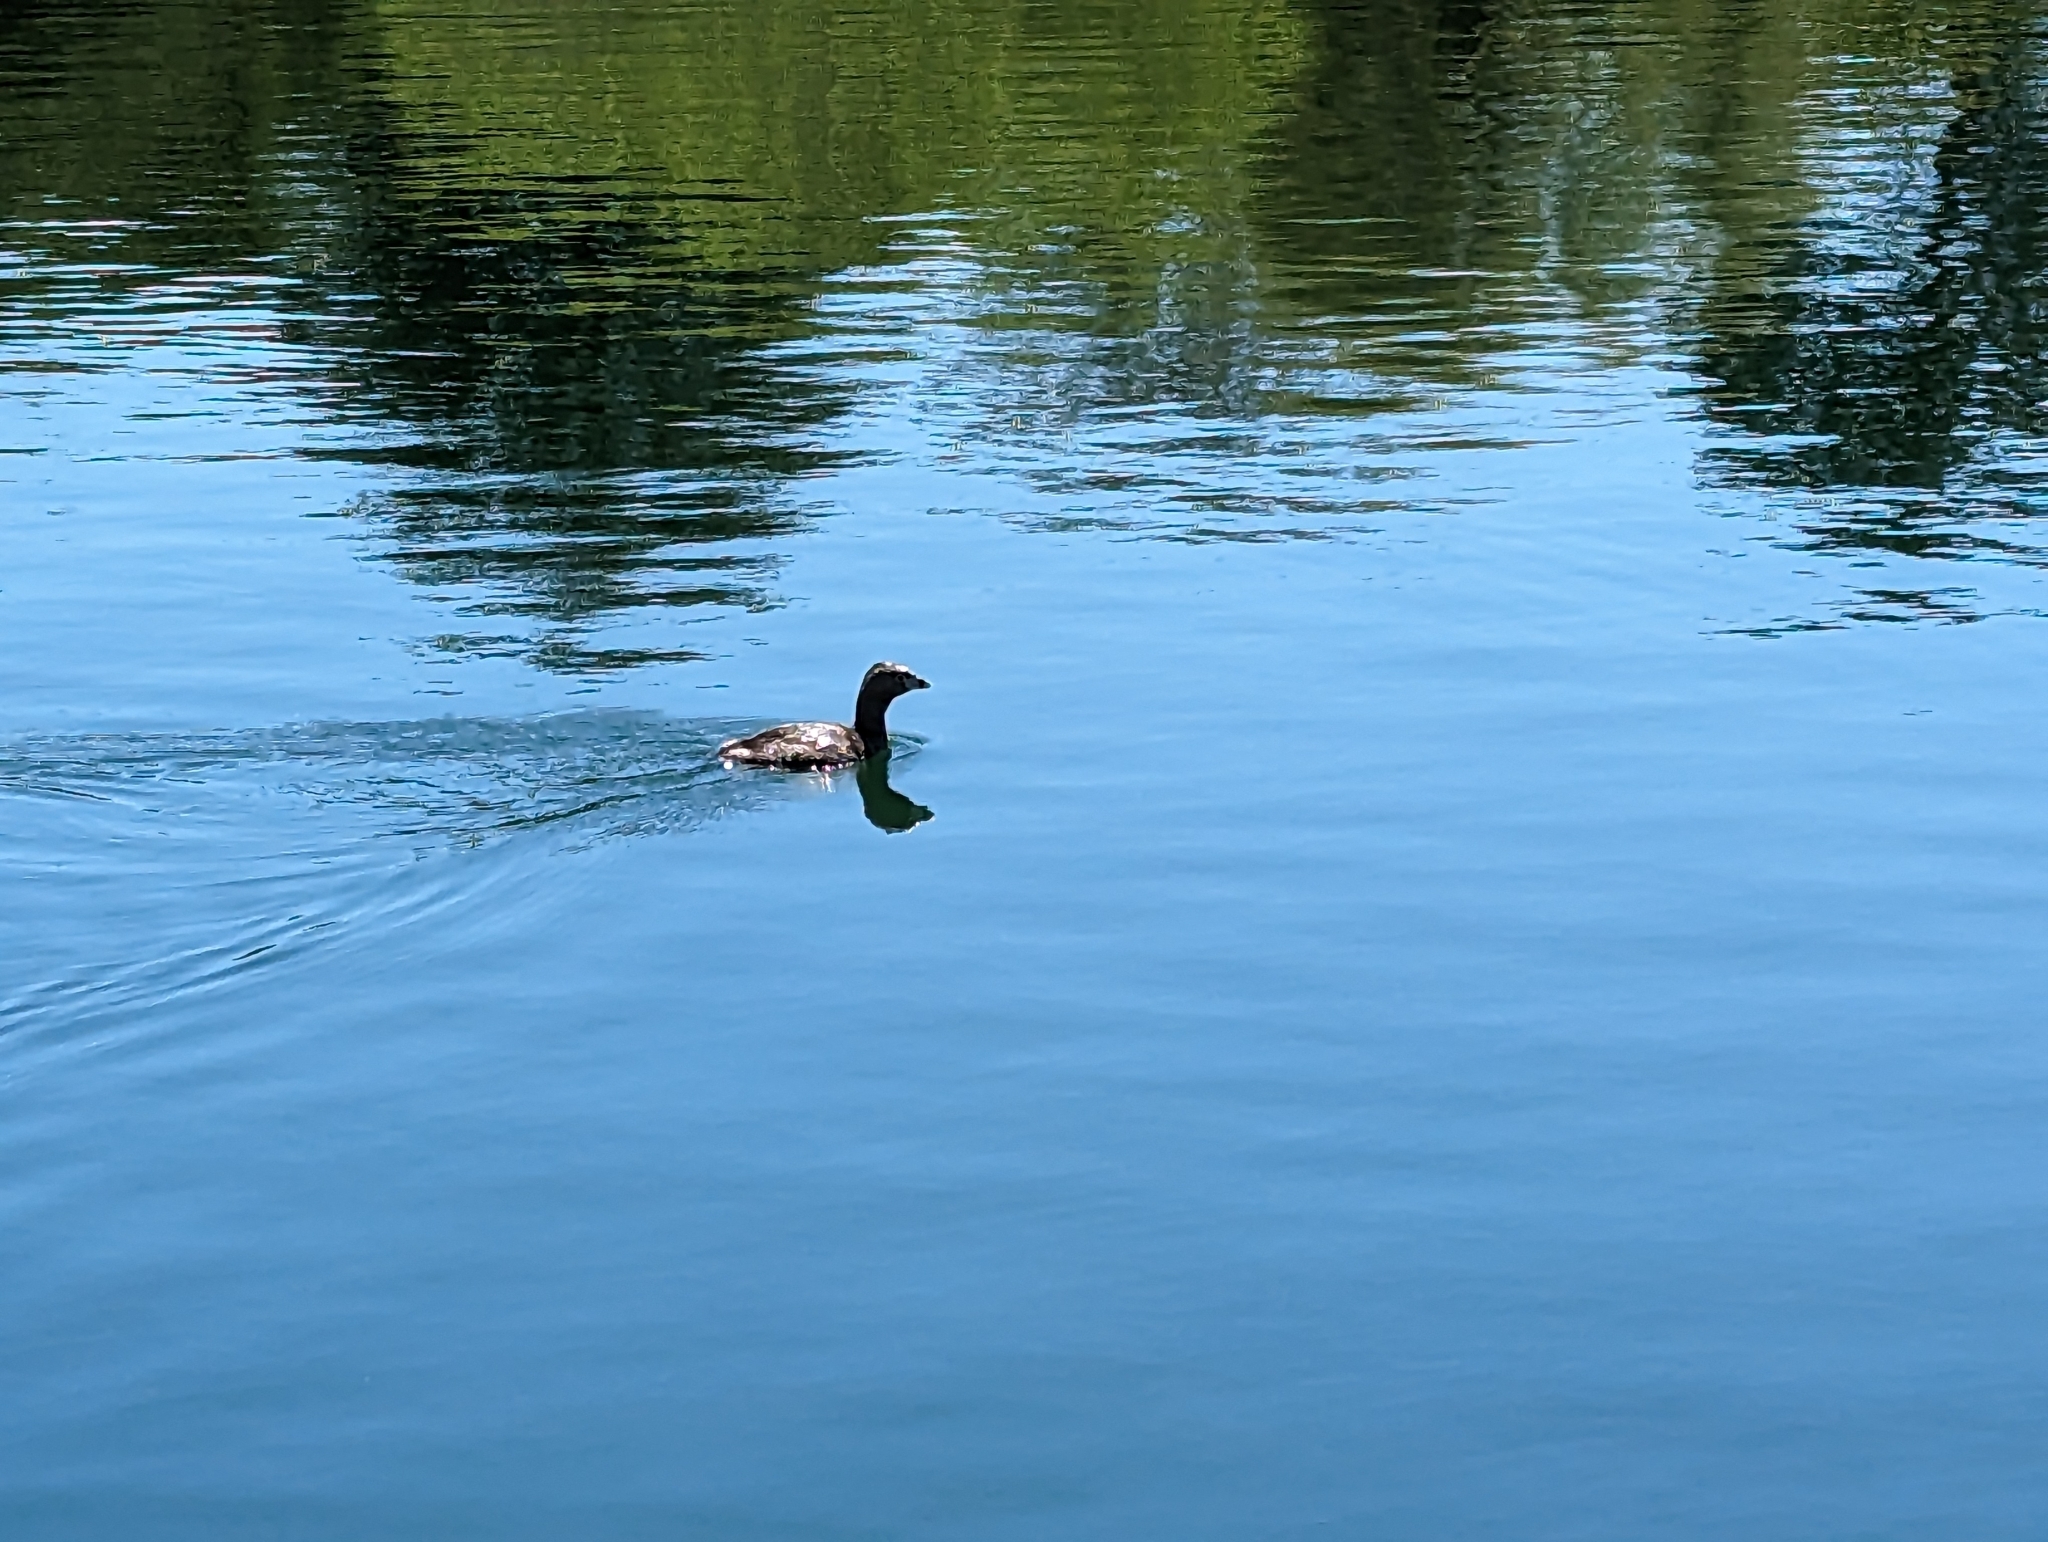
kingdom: Animalia
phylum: Chordata
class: Aves
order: Podicipediformes
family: Podicipedidae
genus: Podilymbus
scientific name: Podilymbus podiceps
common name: Pied-billed grebe
